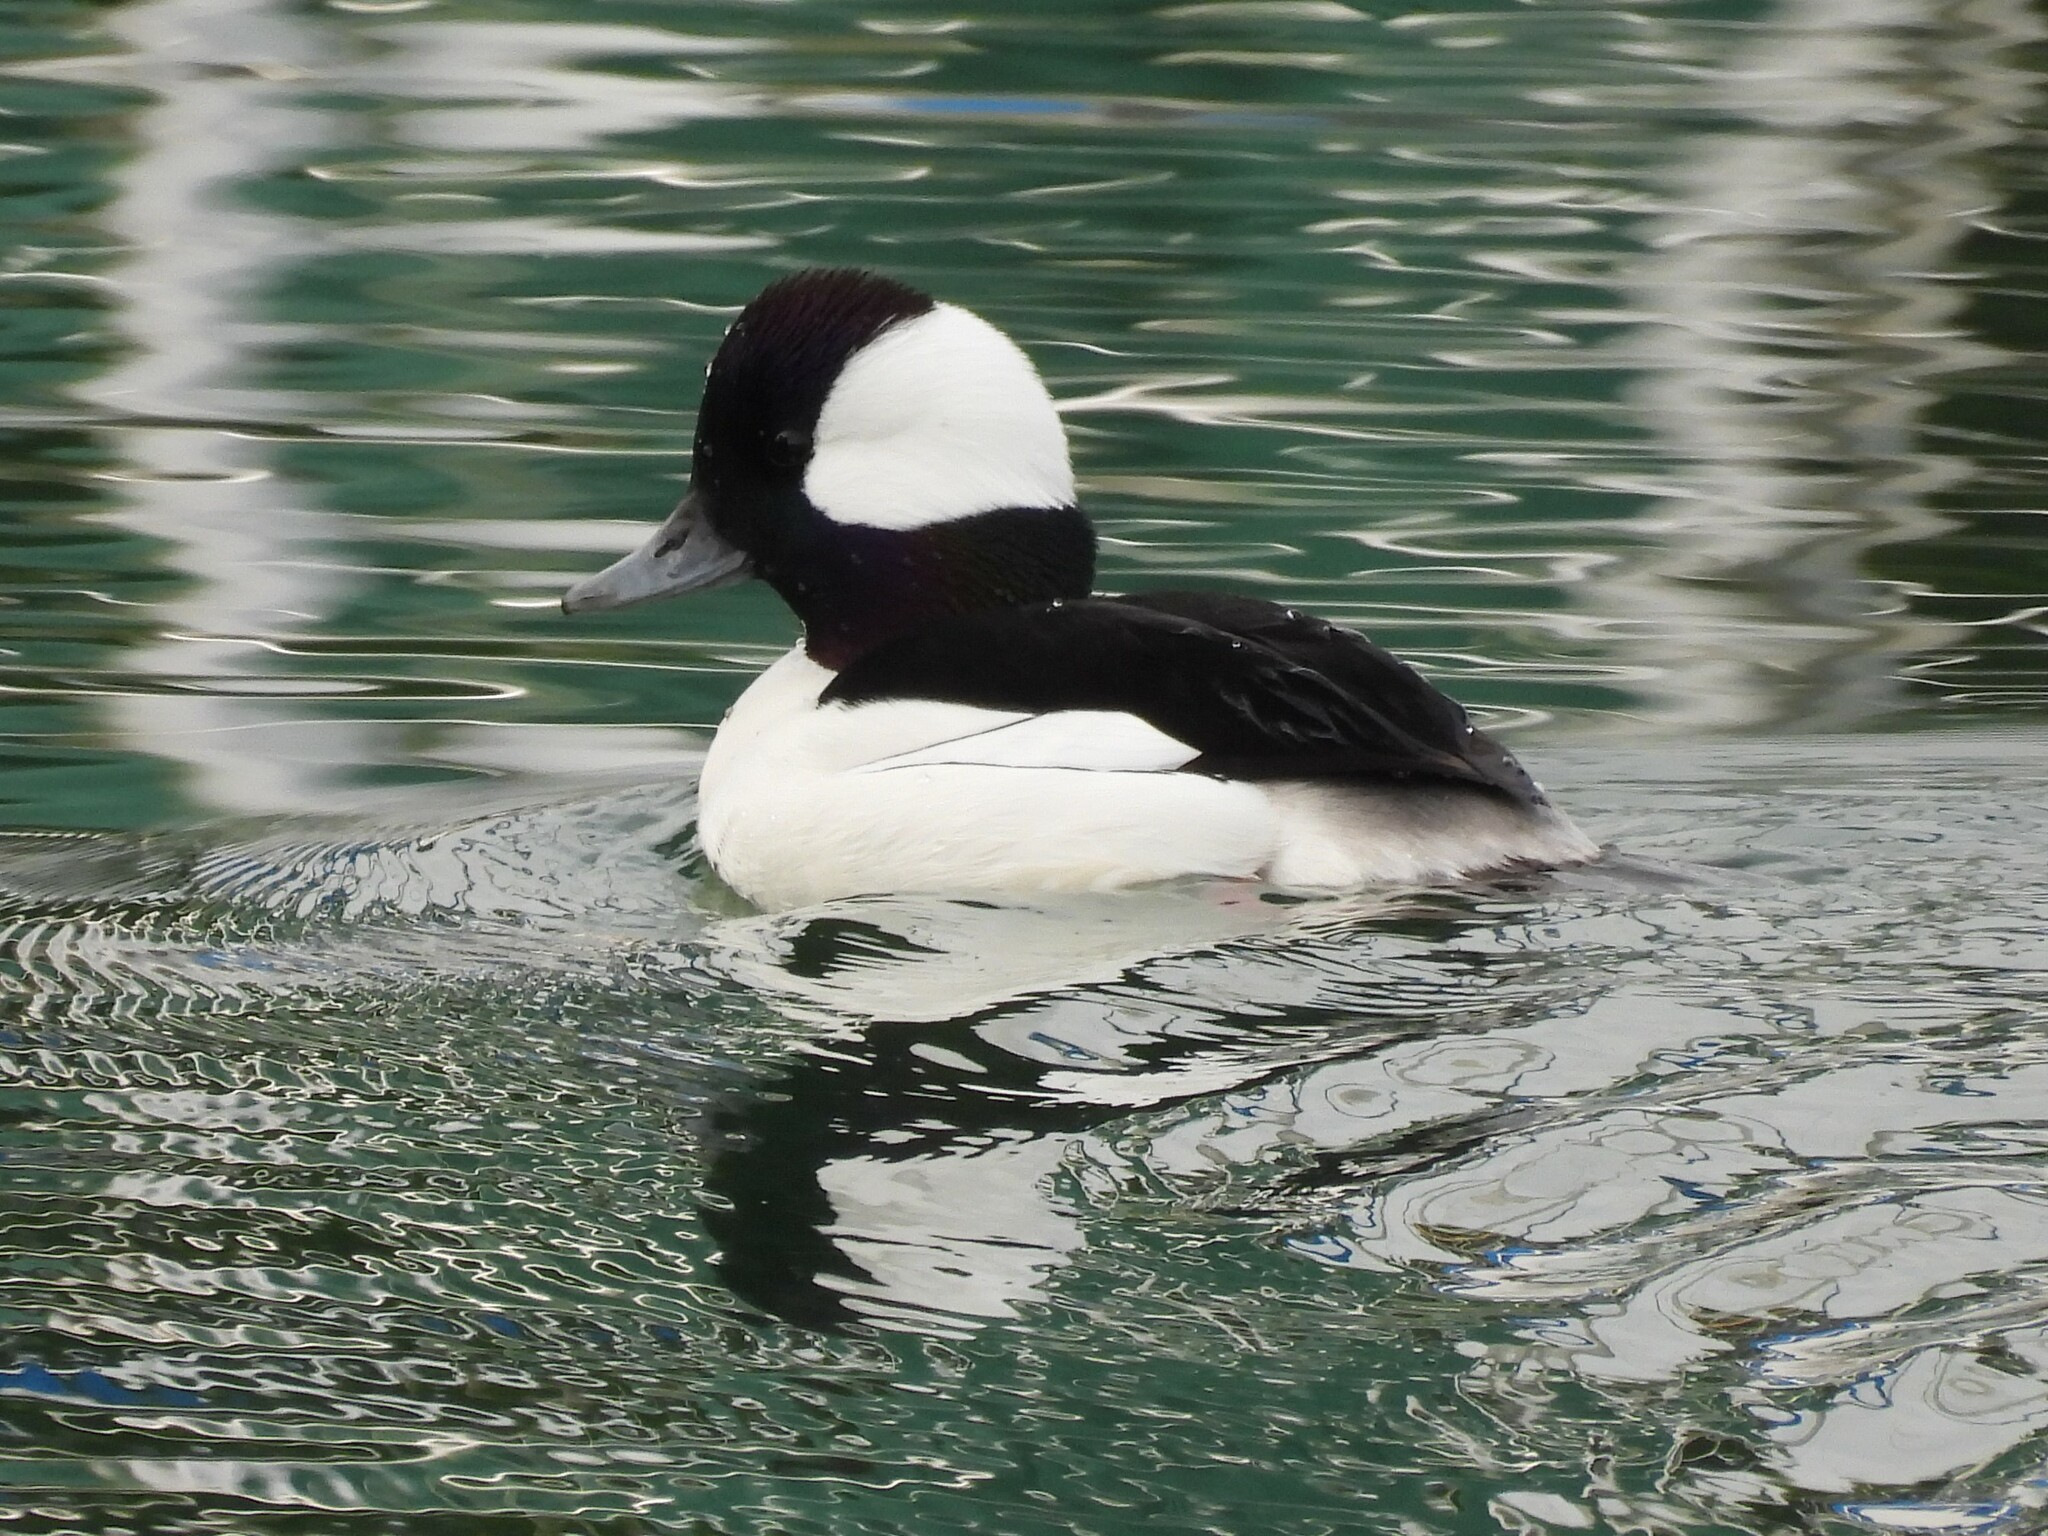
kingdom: Animalia
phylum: Chordata
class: Aves
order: Anseriformes
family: Anatidae
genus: Bucephala
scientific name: Bucephala albeola
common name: Bufflehead
